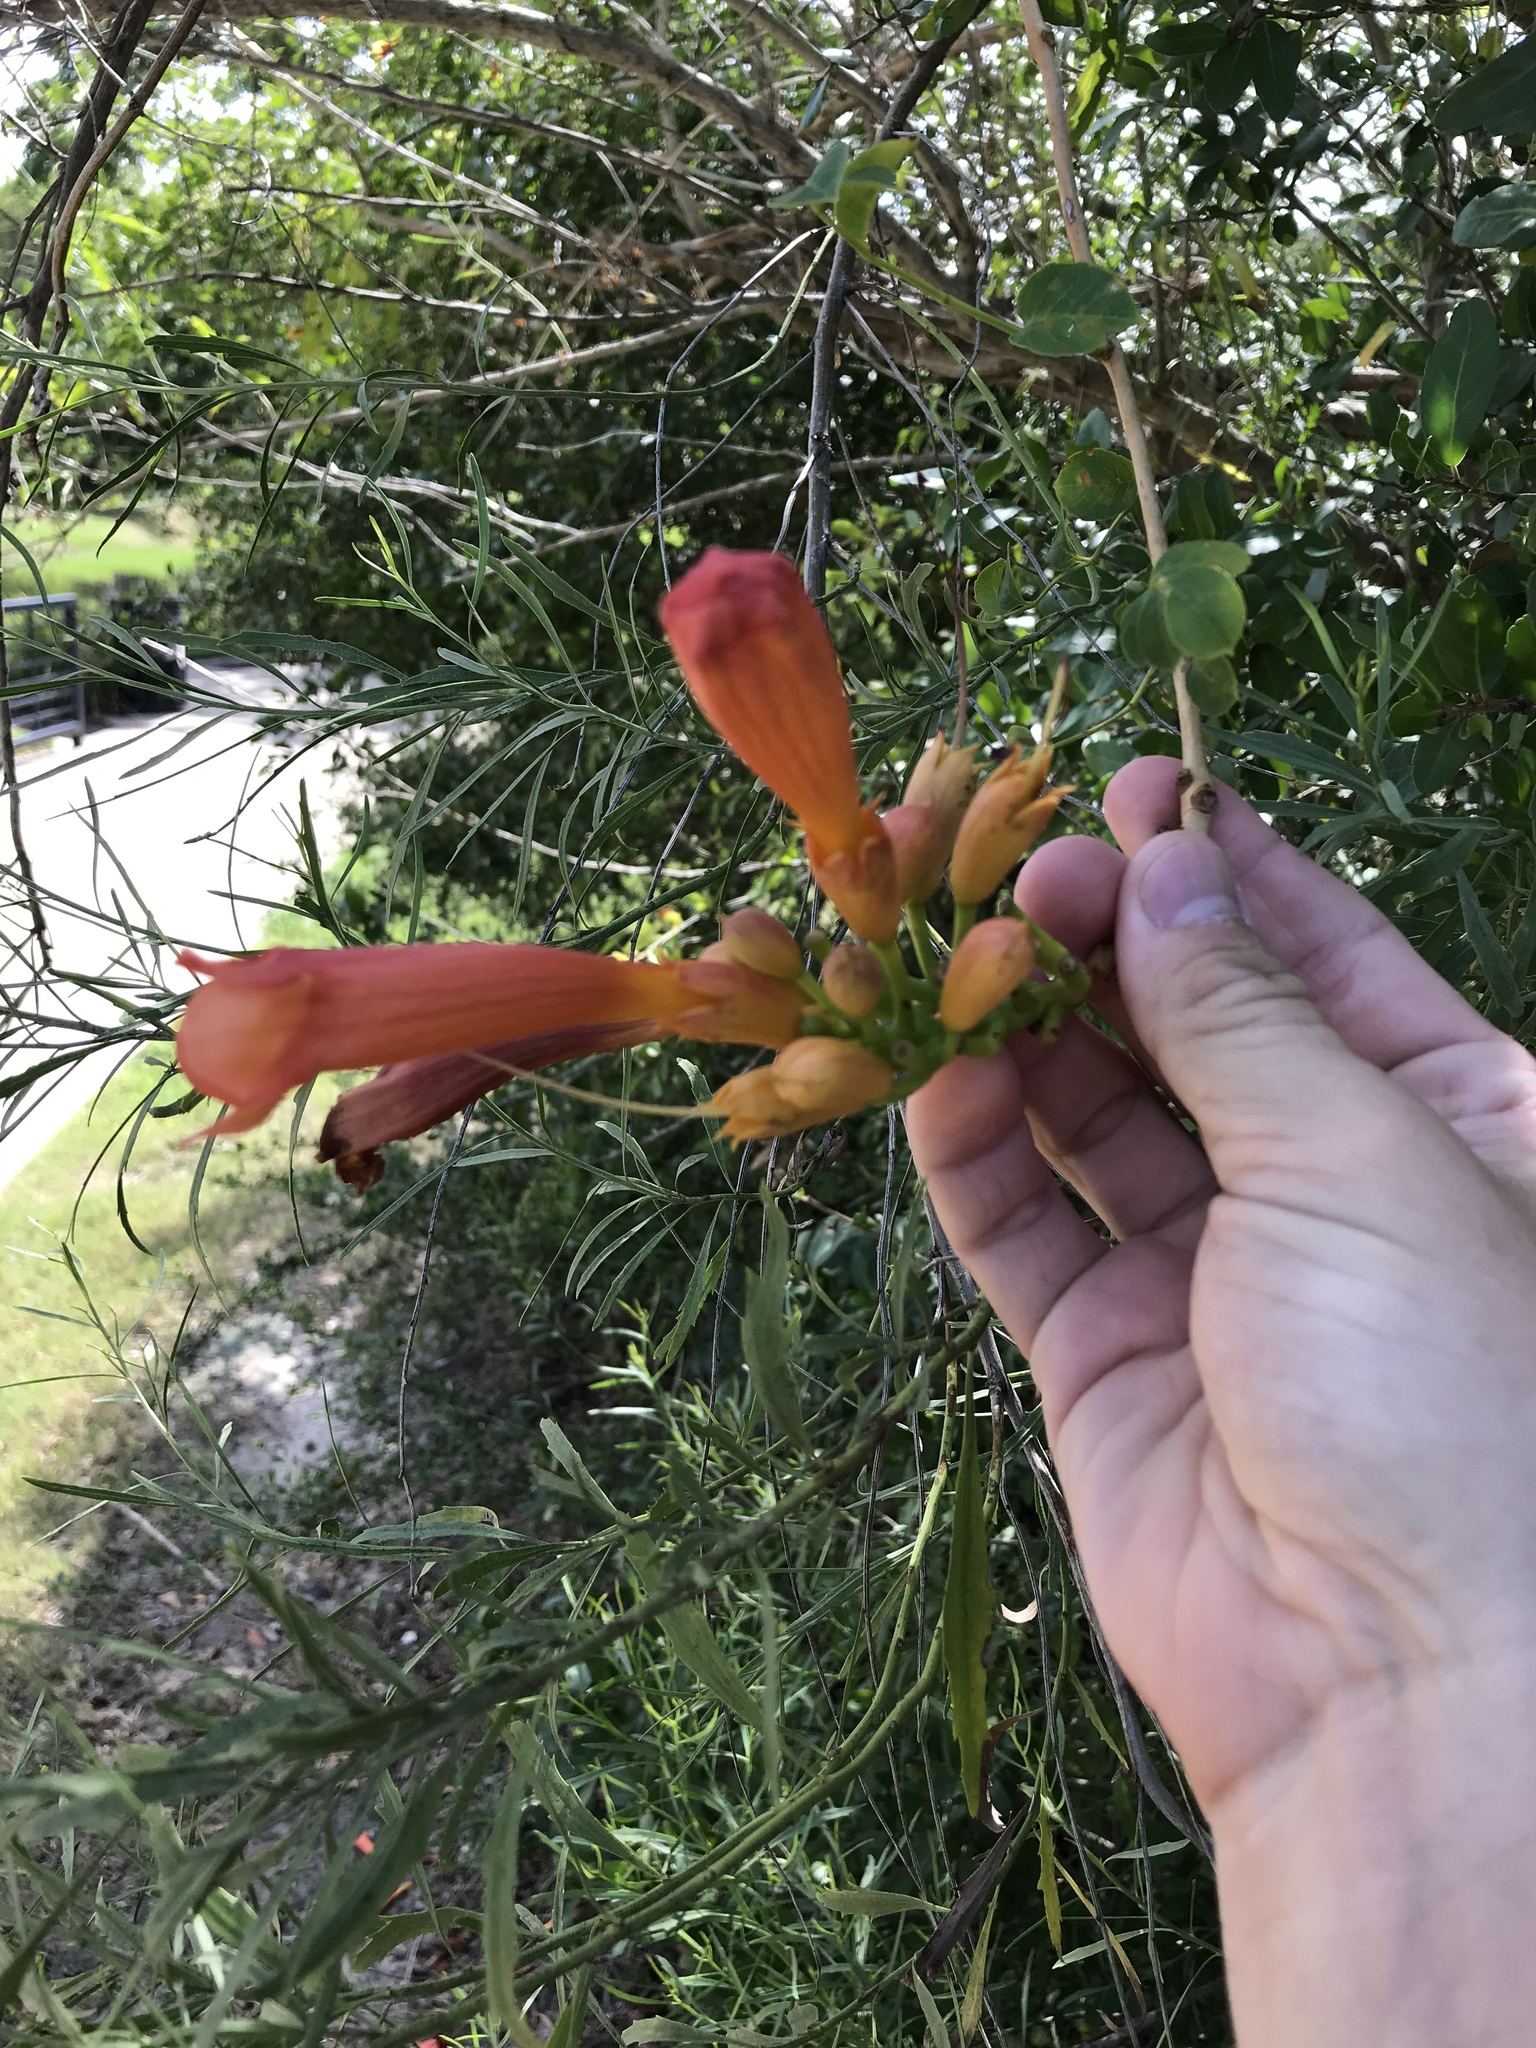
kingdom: Plantae
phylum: Tracheophyta
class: Magnoliopsida
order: Lamiales
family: Bignoniaceae
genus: Campsis
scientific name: Campsis radicans
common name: Trumpet-creeper
